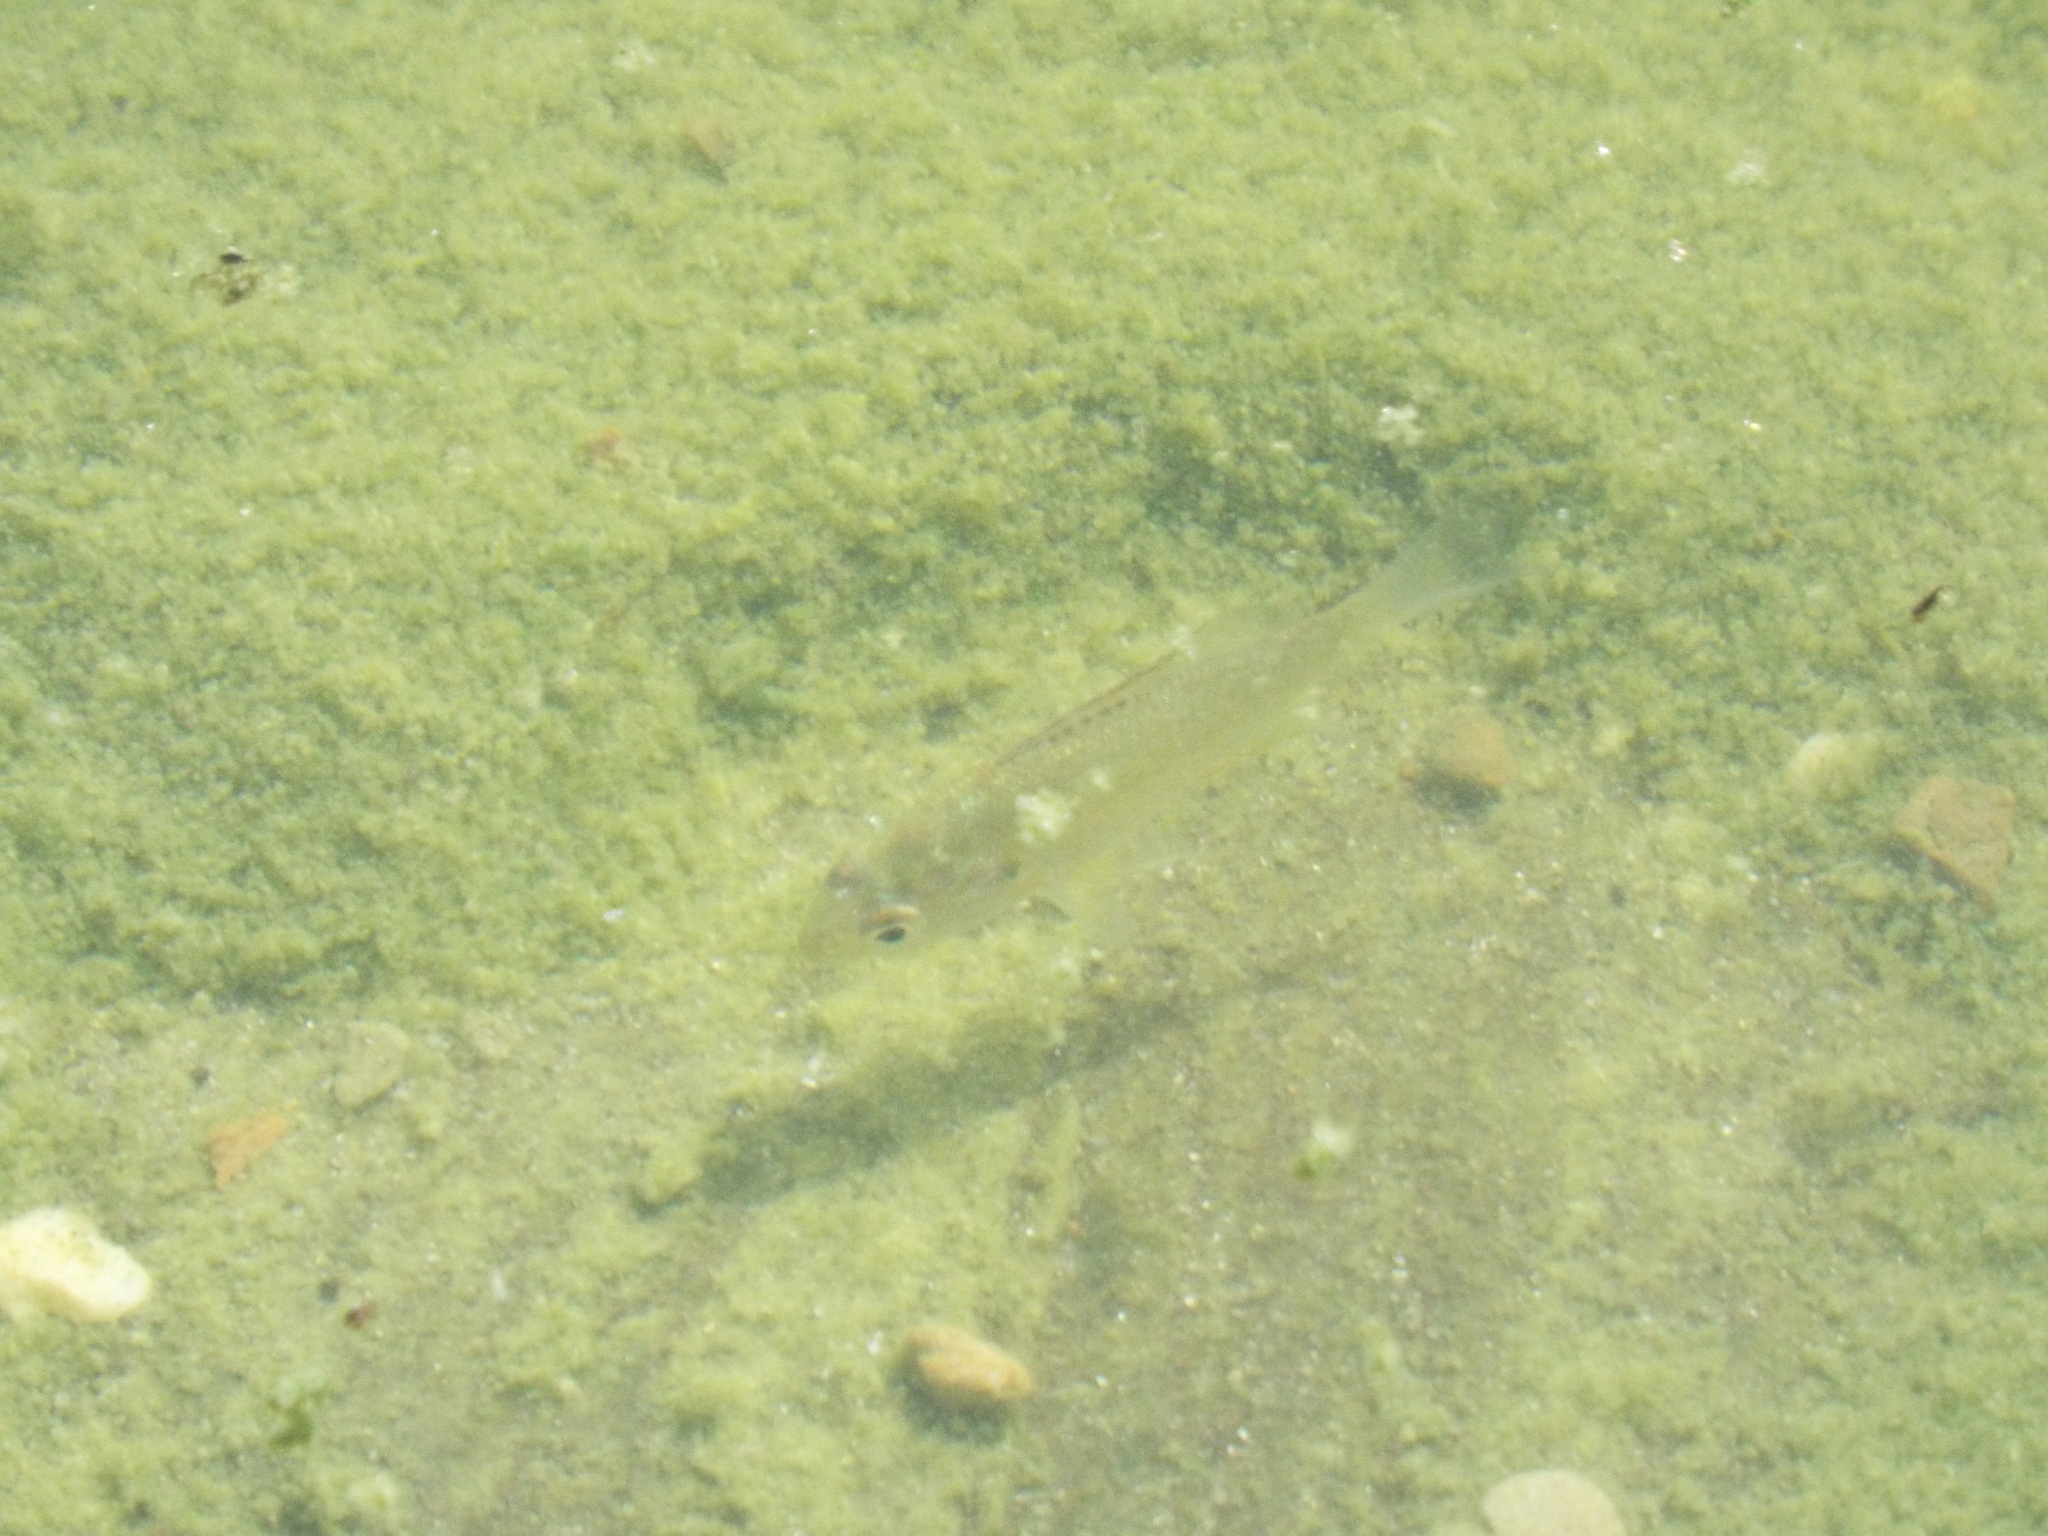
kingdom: Animalia
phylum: Chordata
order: Perciformes
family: Centrarchidae
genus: Lepomis
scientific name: Lepomis gibbosus
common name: Pumpkinseed
